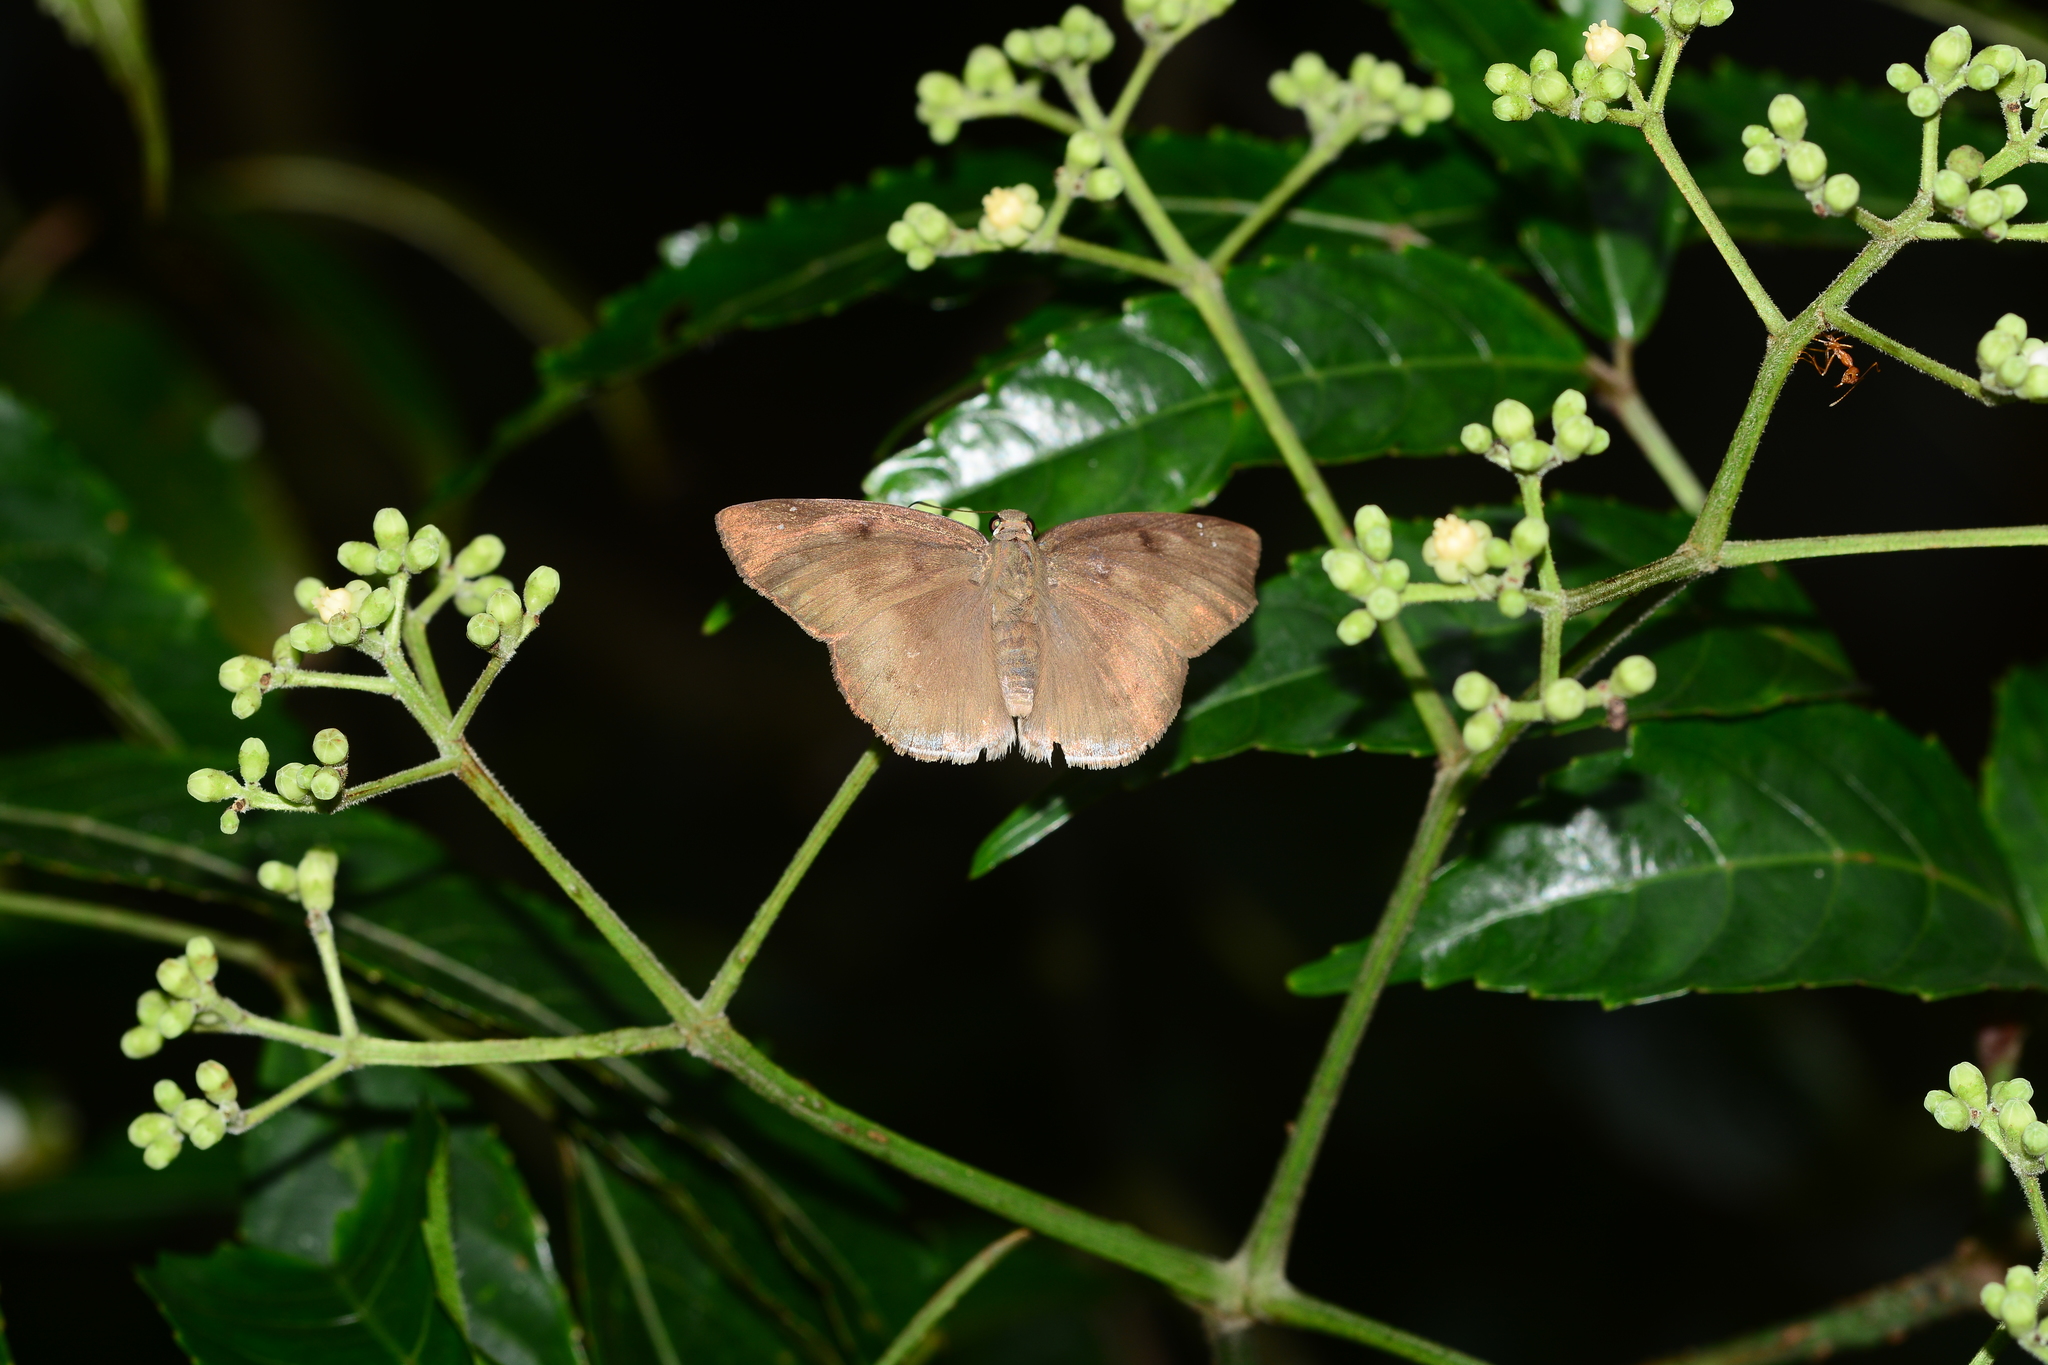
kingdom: Animalia
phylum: Arthropoda
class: Insecta
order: Lepidoptera
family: Hesperiidae
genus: Tagiades
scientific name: Tagiades gana
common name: Suffused snow flat
